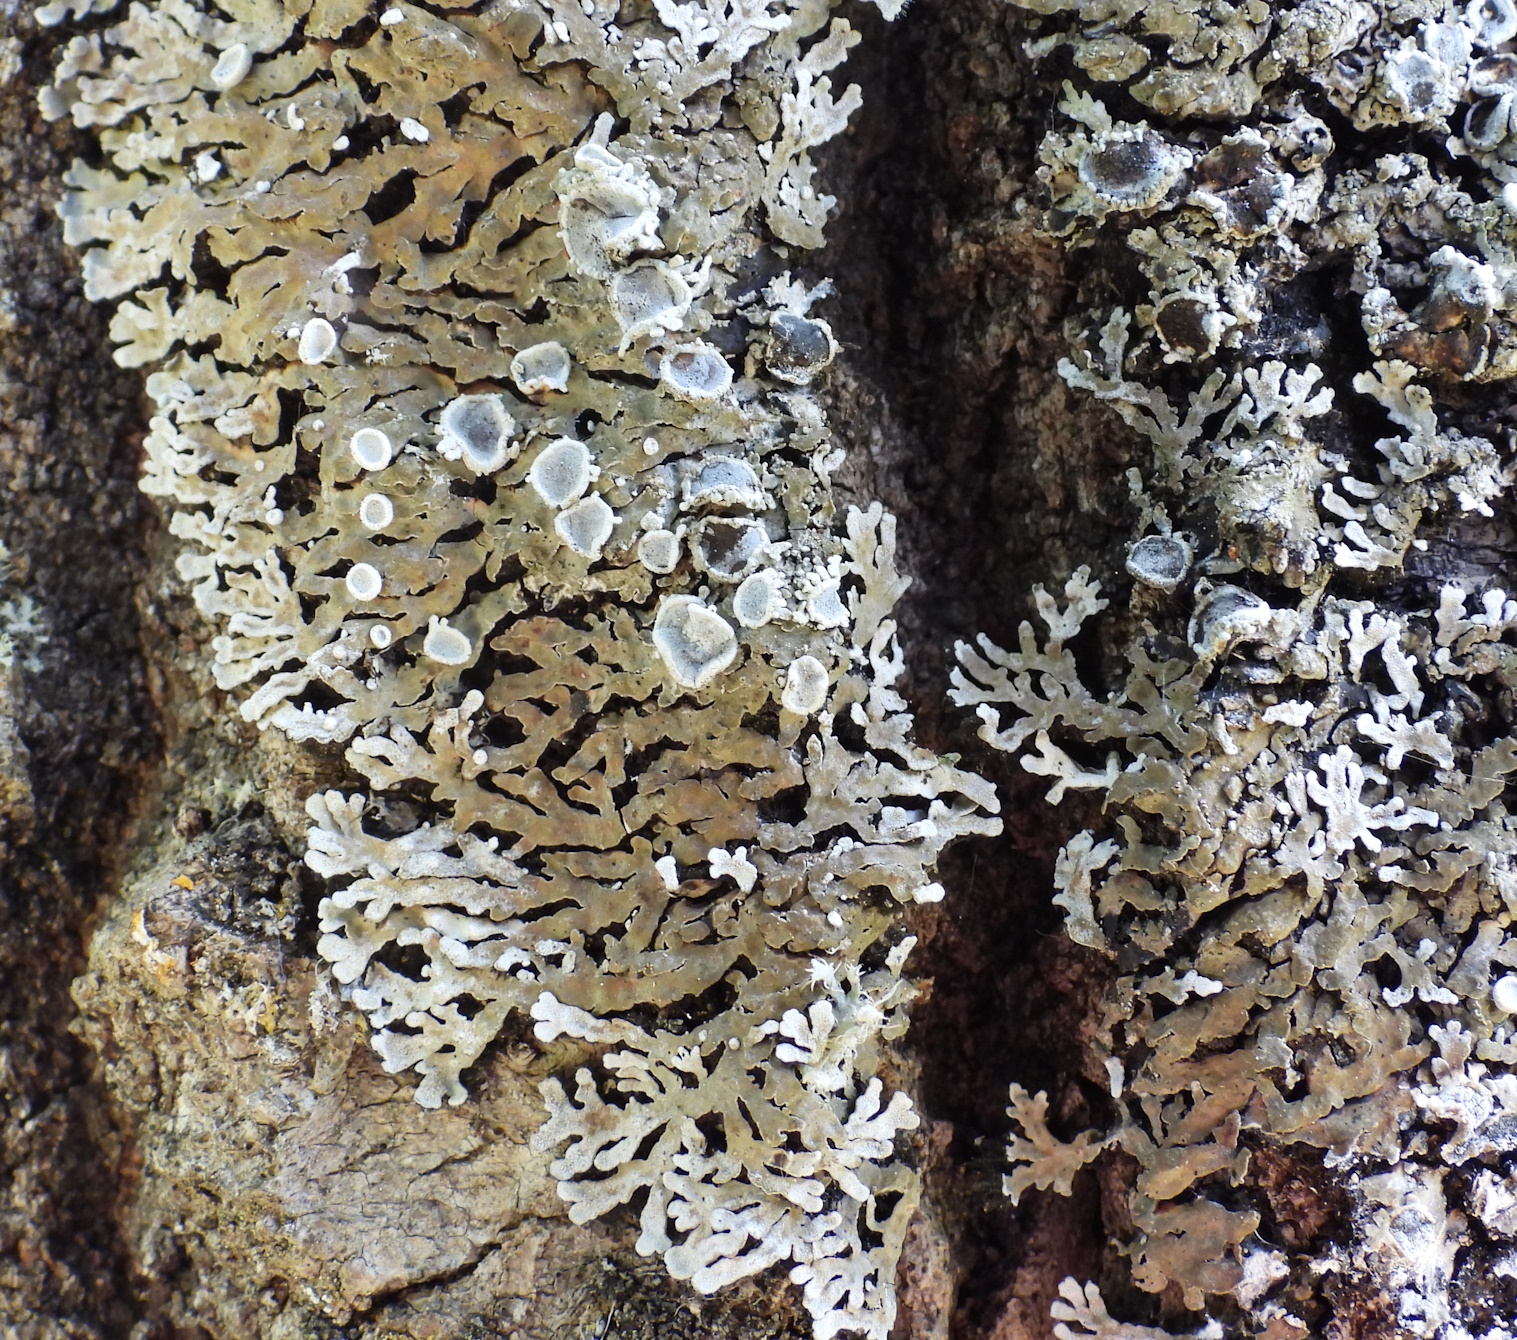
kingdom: Fungi
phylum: Ascomycota
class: Lecanoromycetes
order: Caliciales
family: Physciaceae
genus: Physconia
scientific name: Physconia distorta
